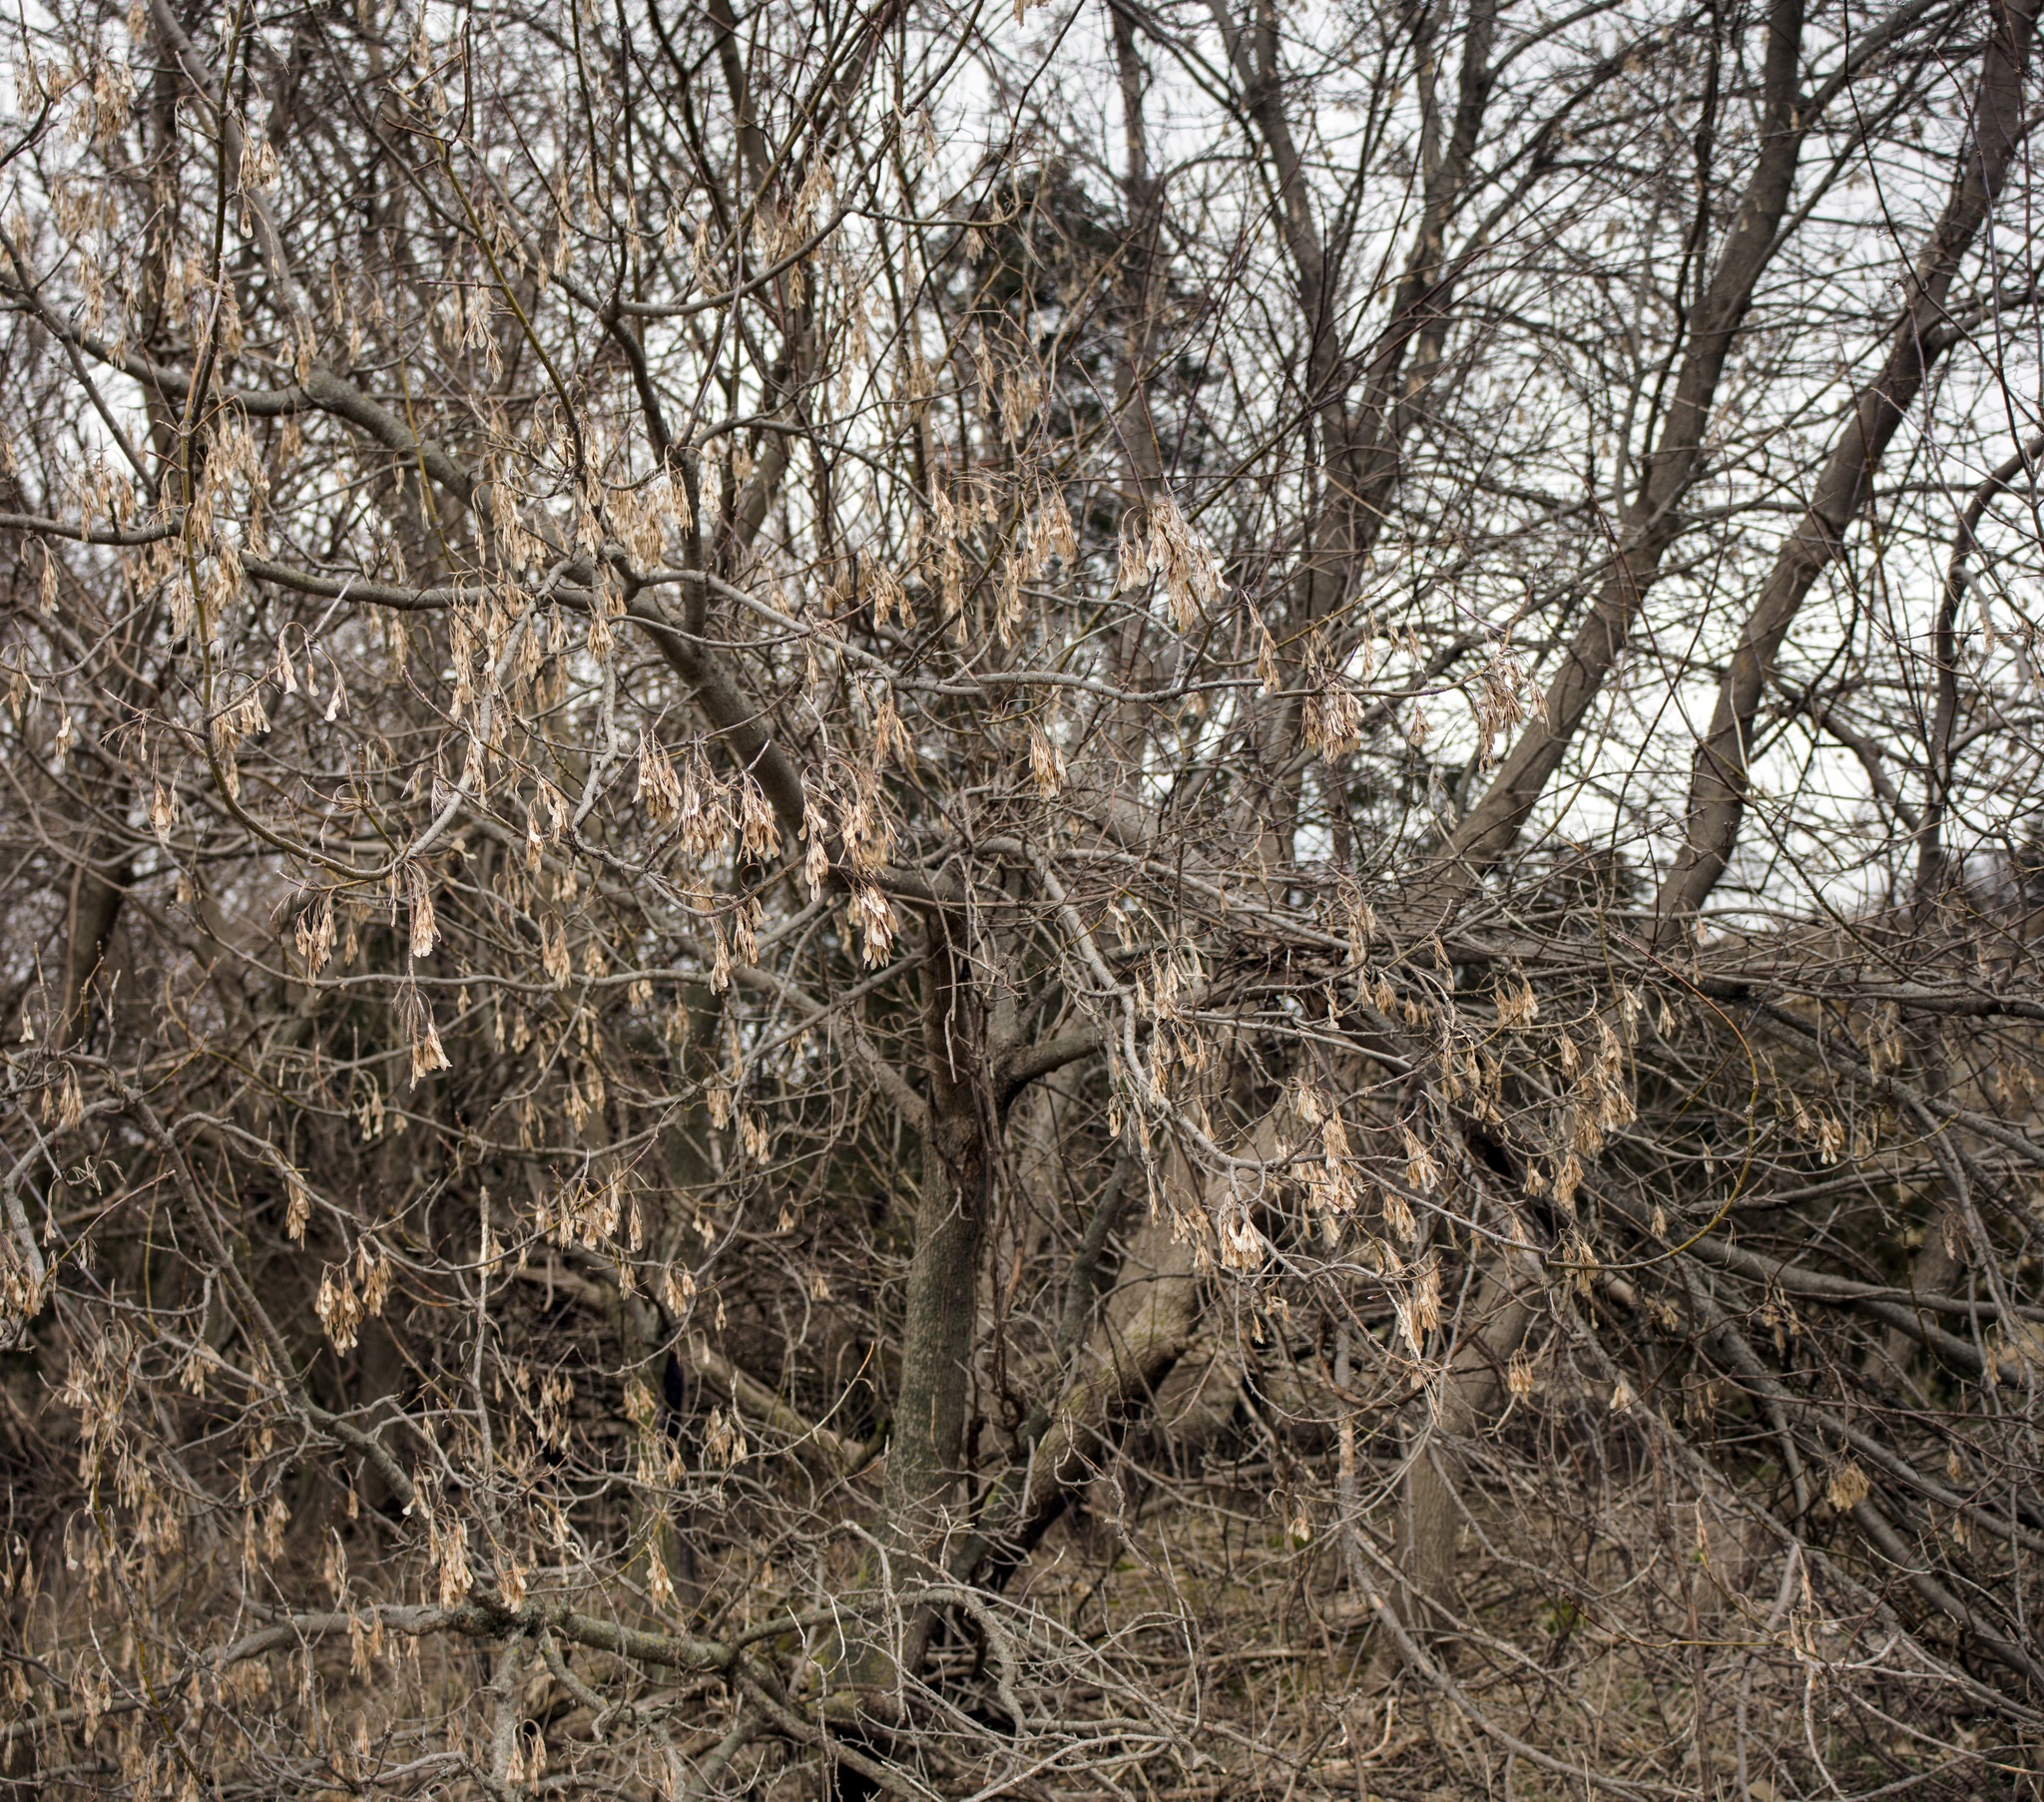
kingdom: Plantae
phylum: Tracheophyta
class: Magnoliopsida
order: Sapindales
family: Sapindaceae
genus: Acer
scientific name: Acer negundo
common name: Ashleaf maple
